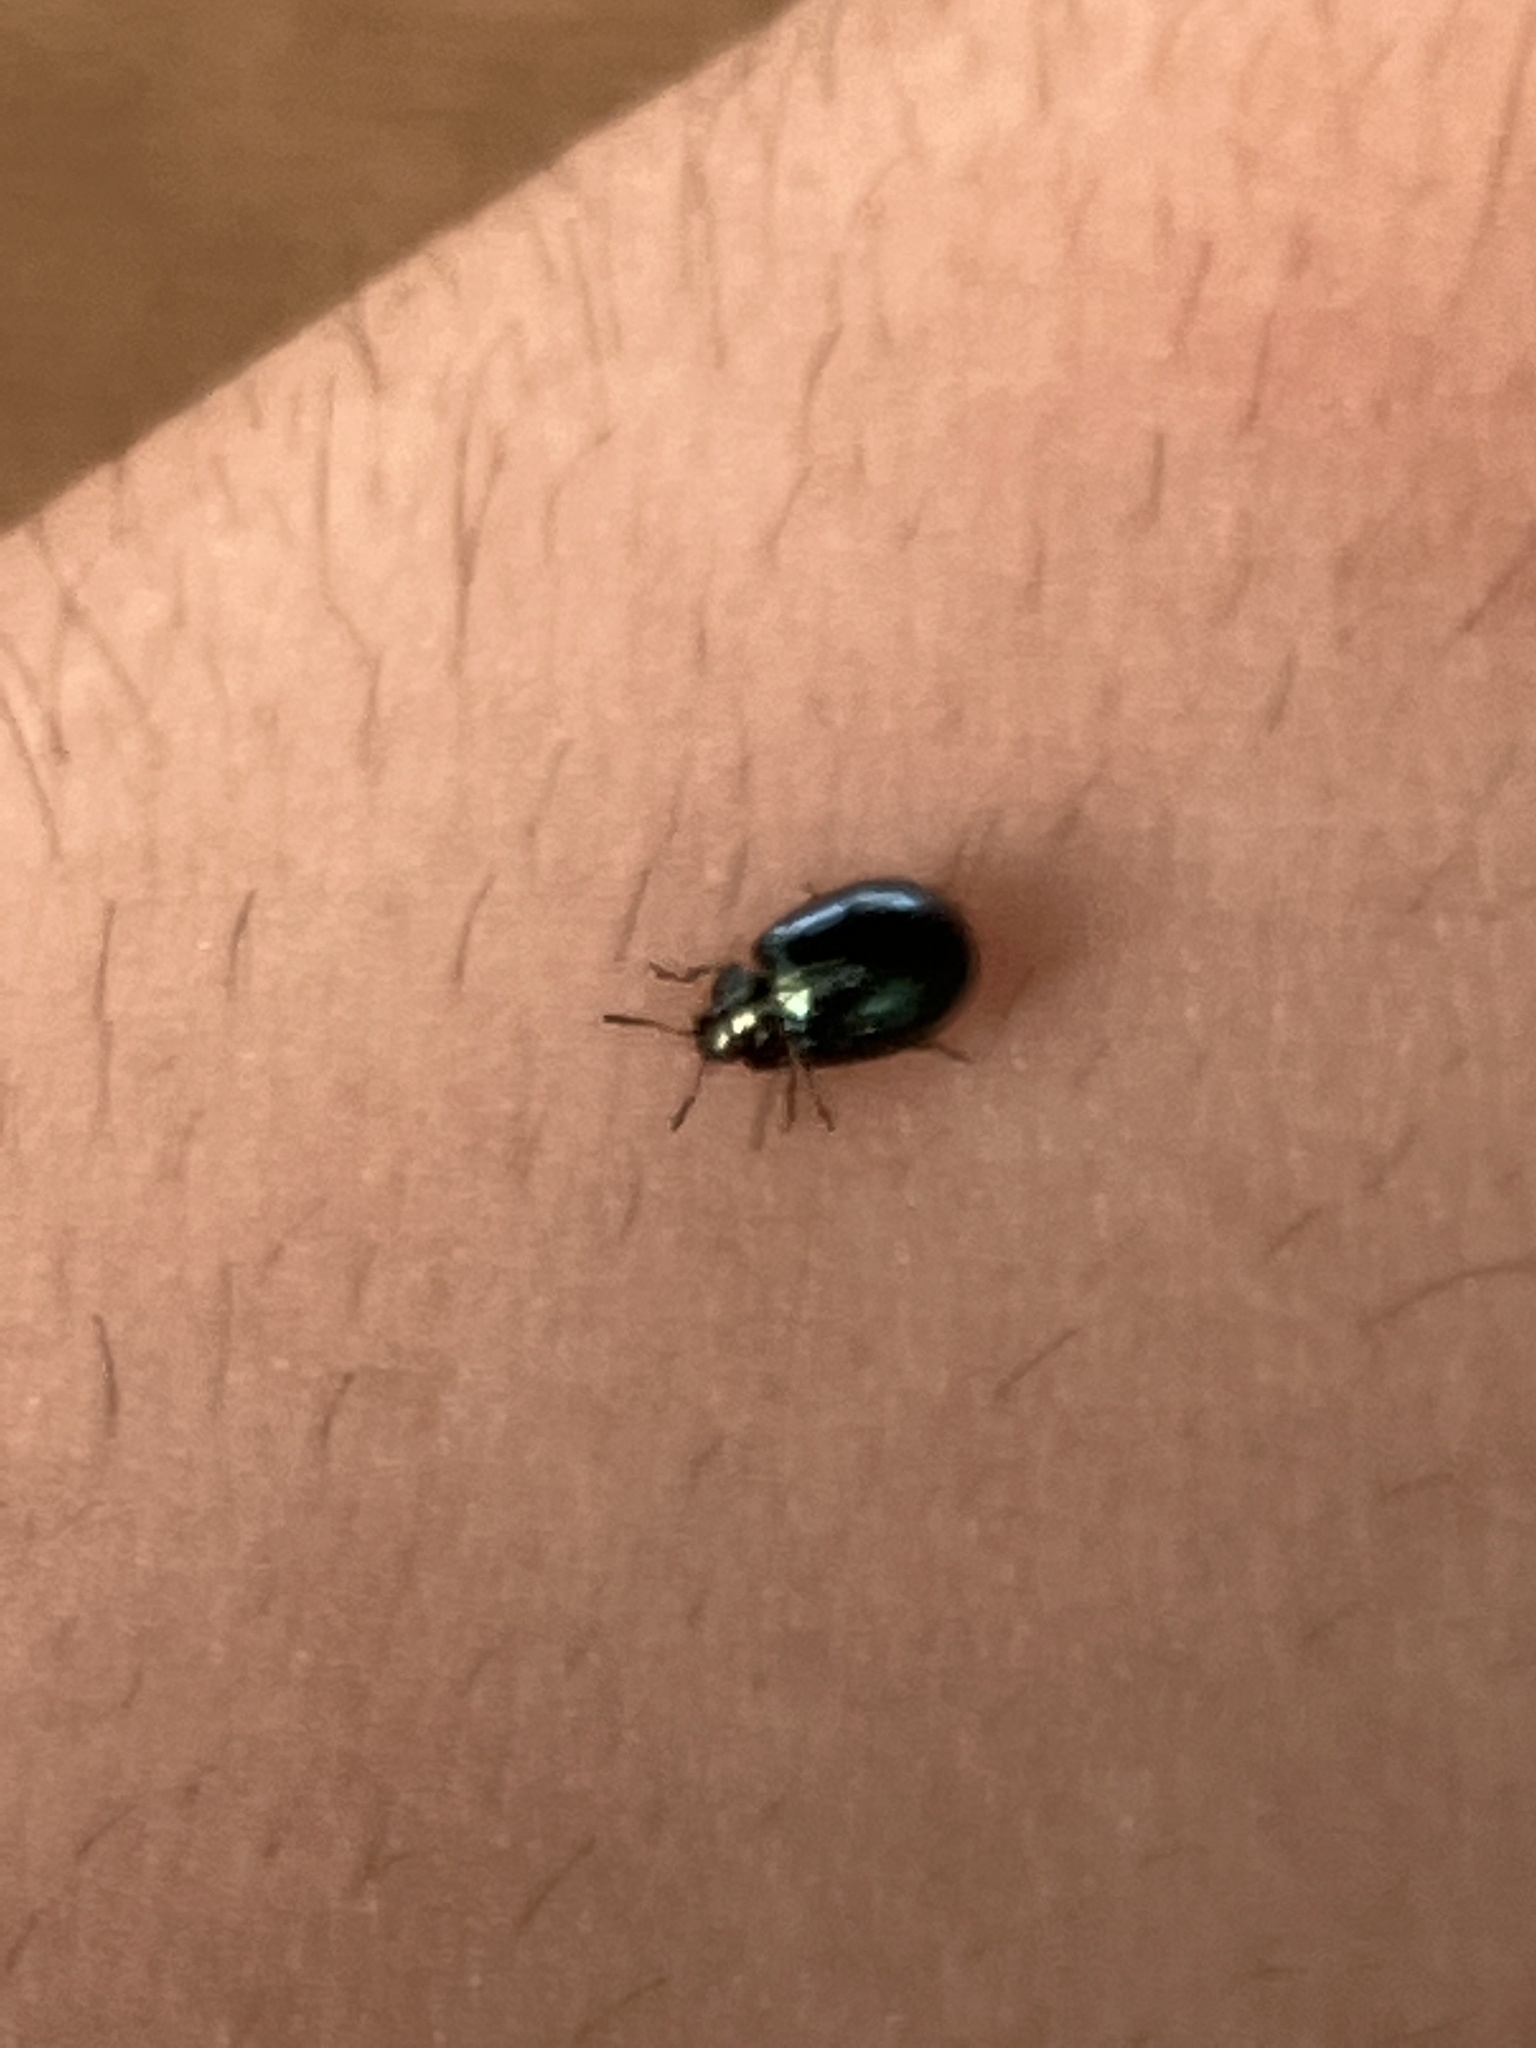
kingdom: Animalia
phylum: Arthropoda
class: Insecta
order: Coleoptera
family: Chrysomelidae
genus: Plagiodera
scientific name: Plagiodera versicolora
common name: Imported willow leaf beetle
